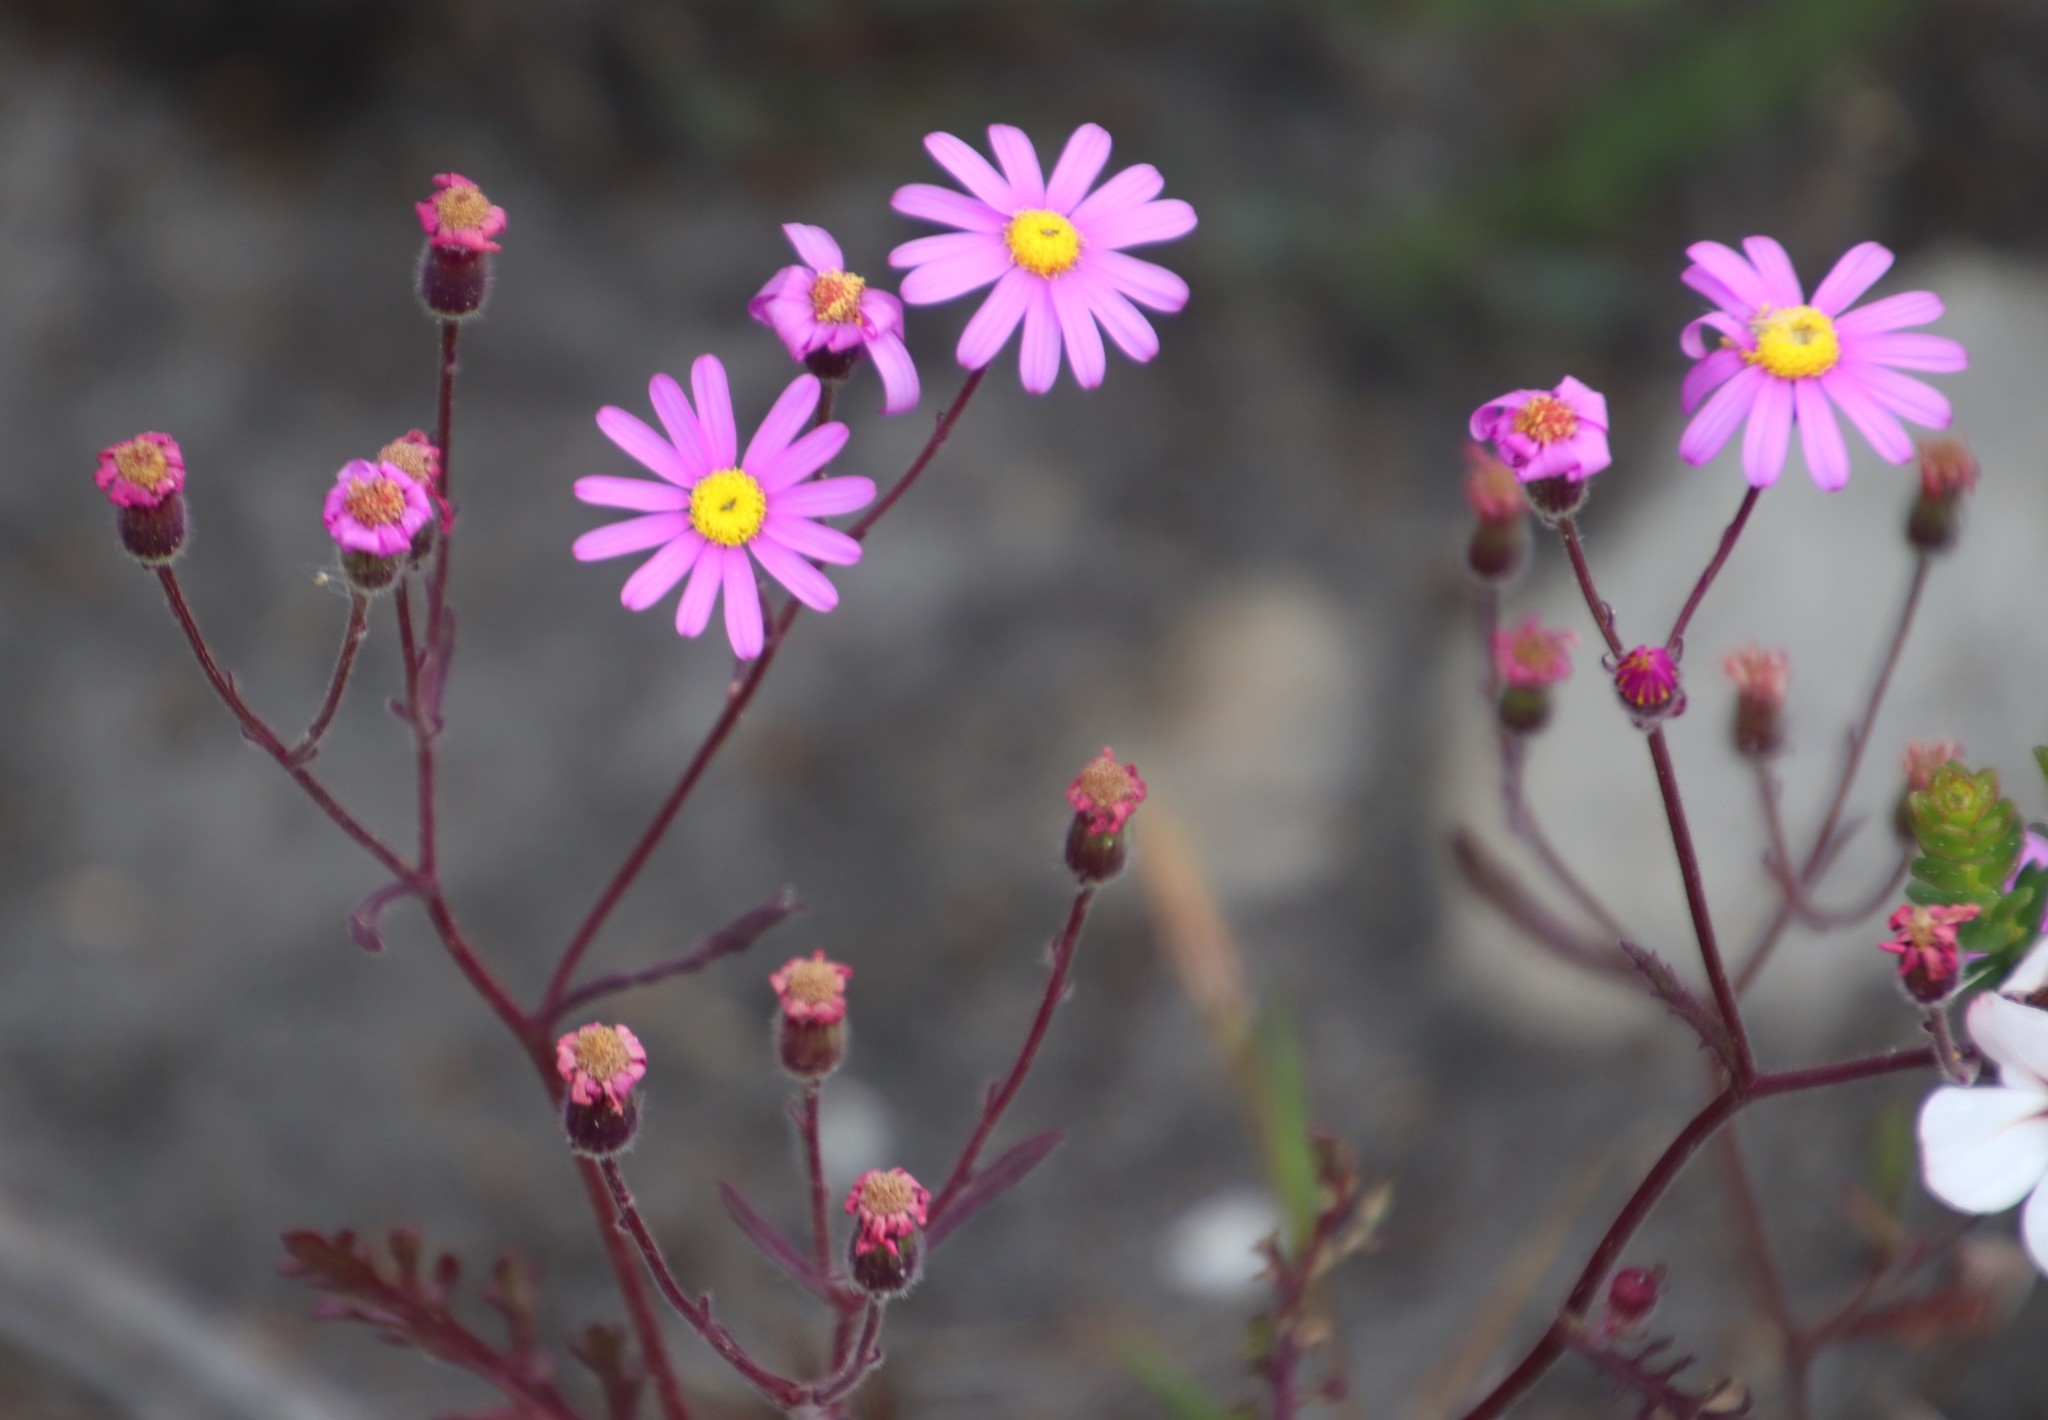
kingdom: Plantae
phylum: Tracheophyta
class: Magnoliopsida
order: Asterales
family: Asteraceae
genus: Senecio
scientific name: Senecio arenarius
